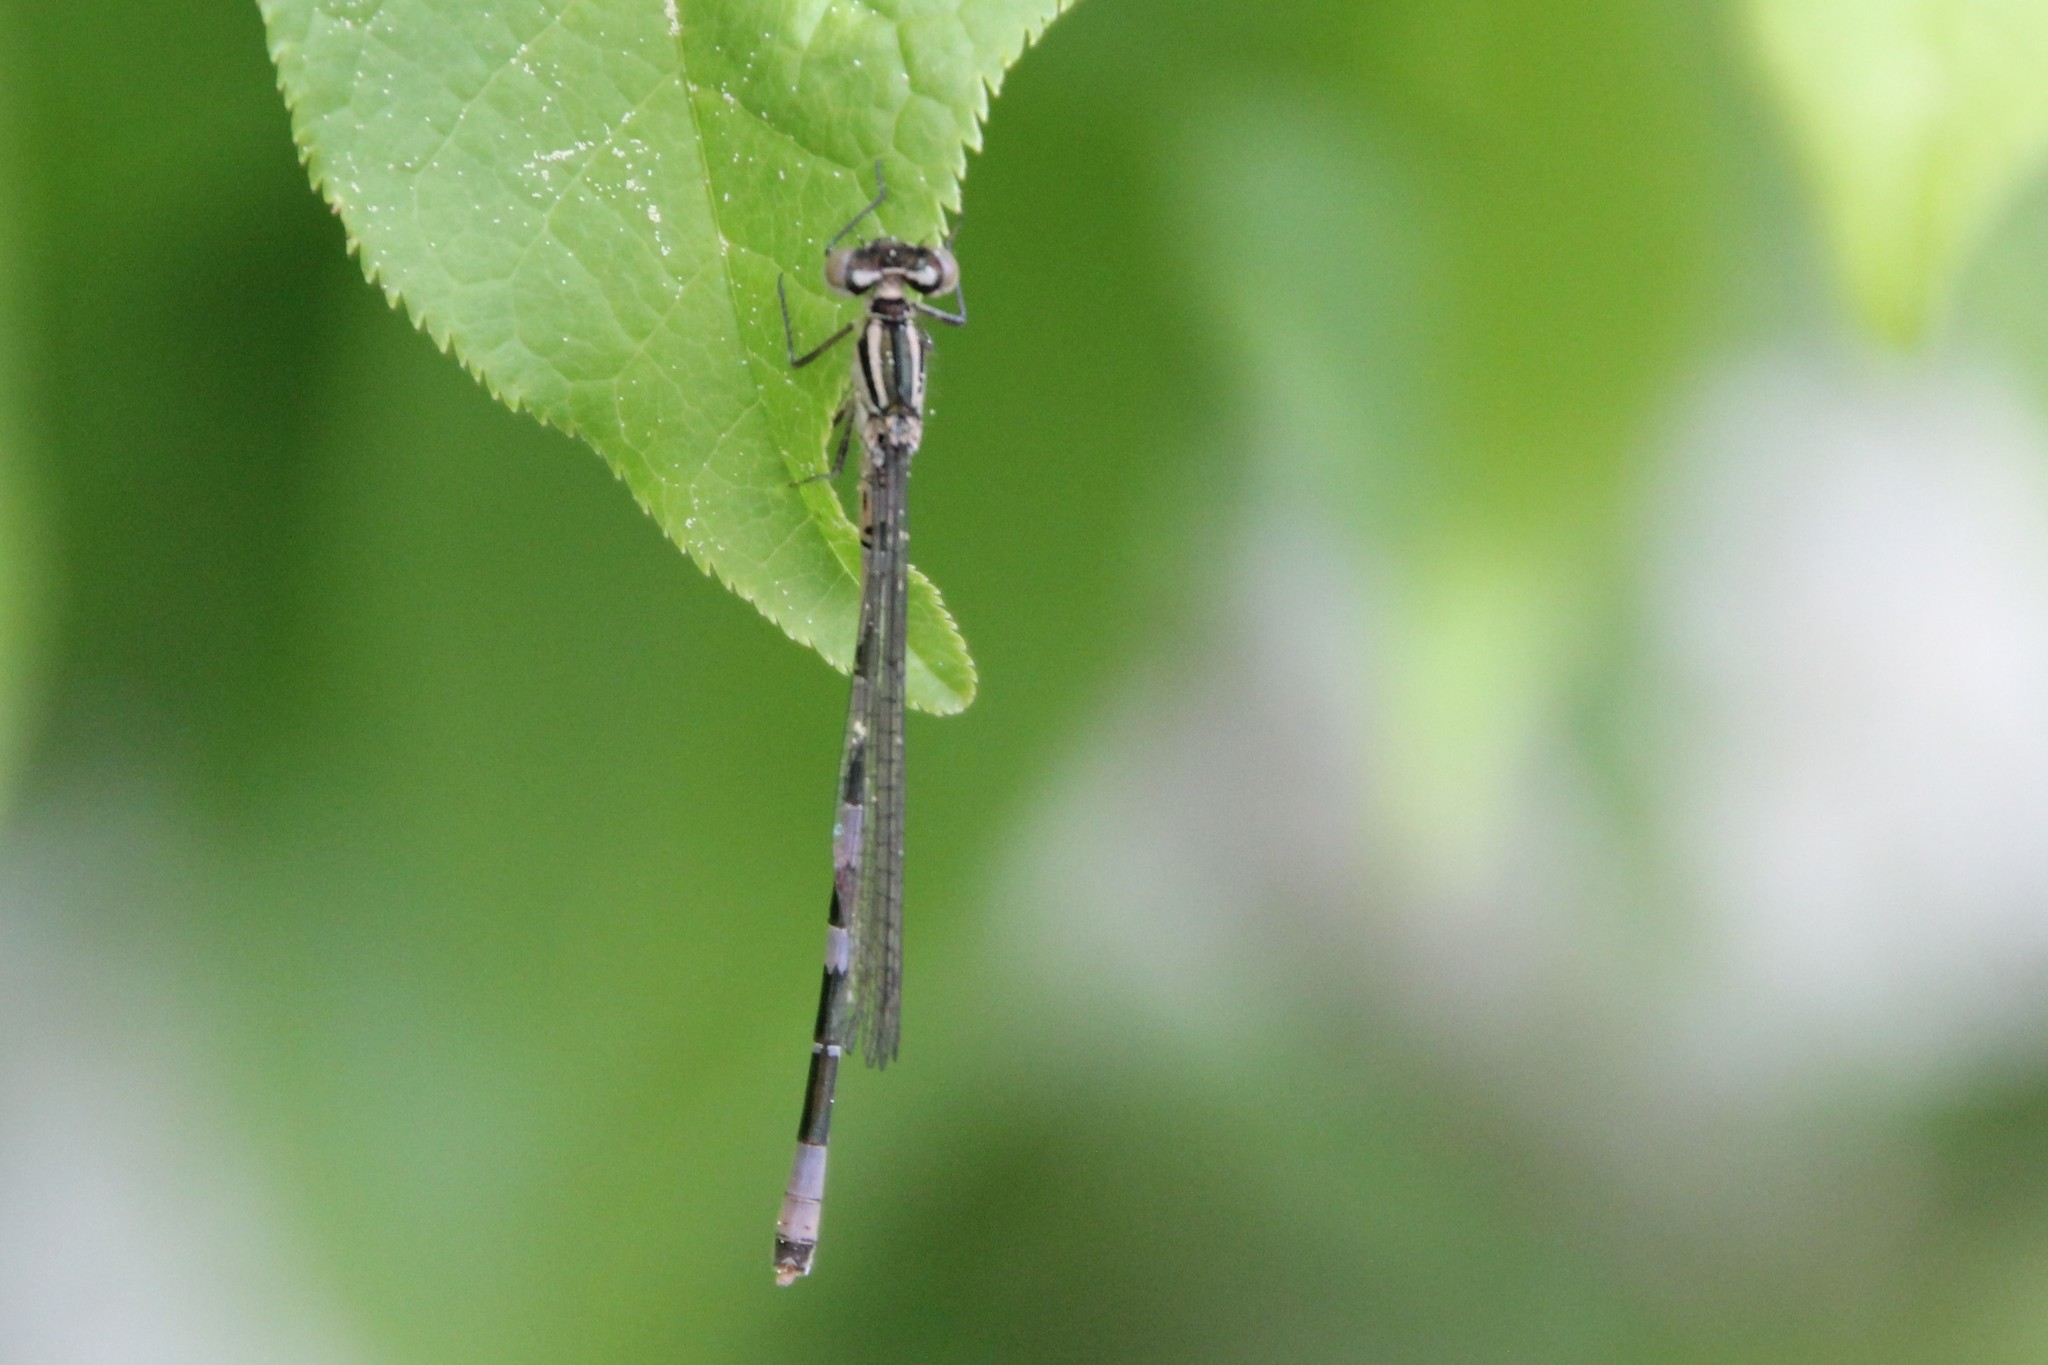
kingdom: Animalia
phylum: Arthropoda
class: Insecta
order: Odonata
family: Coenagrionidae
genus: Coenagrion
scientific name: Coenagrion hastulatum
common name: Spearhead bluet
